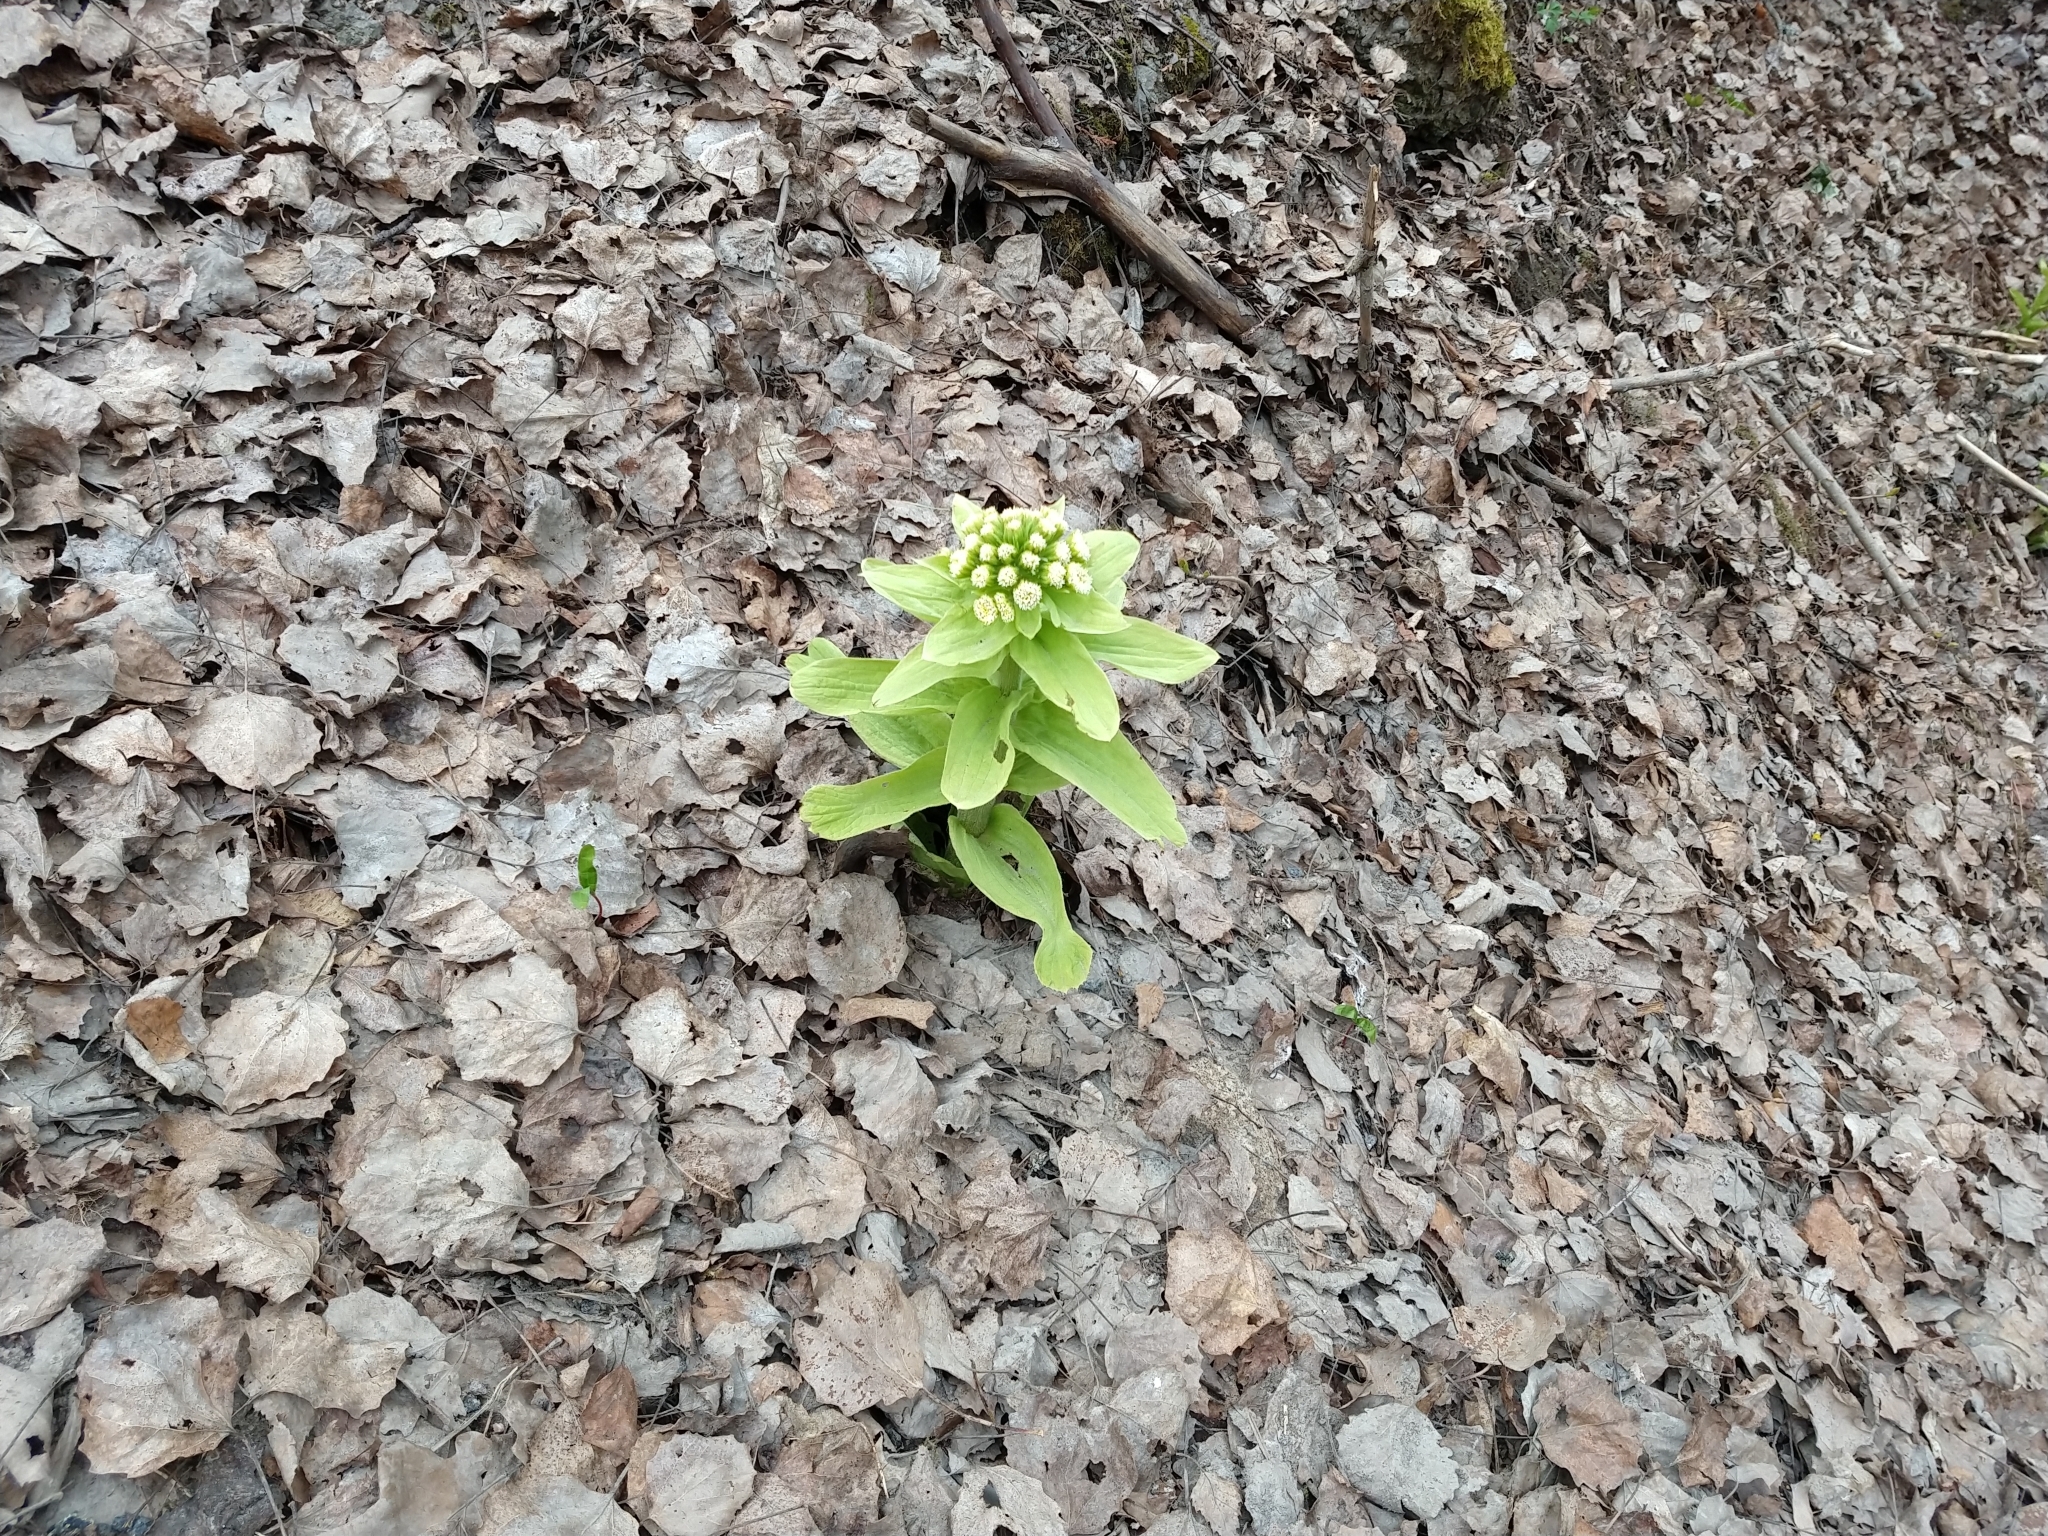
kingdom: Plantae
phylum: Tracheophyta
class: Magnoliopsida
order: Asterales
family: Asteraceae
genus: Petasites
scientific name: Petasites japonicus
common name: Giant butterbur
